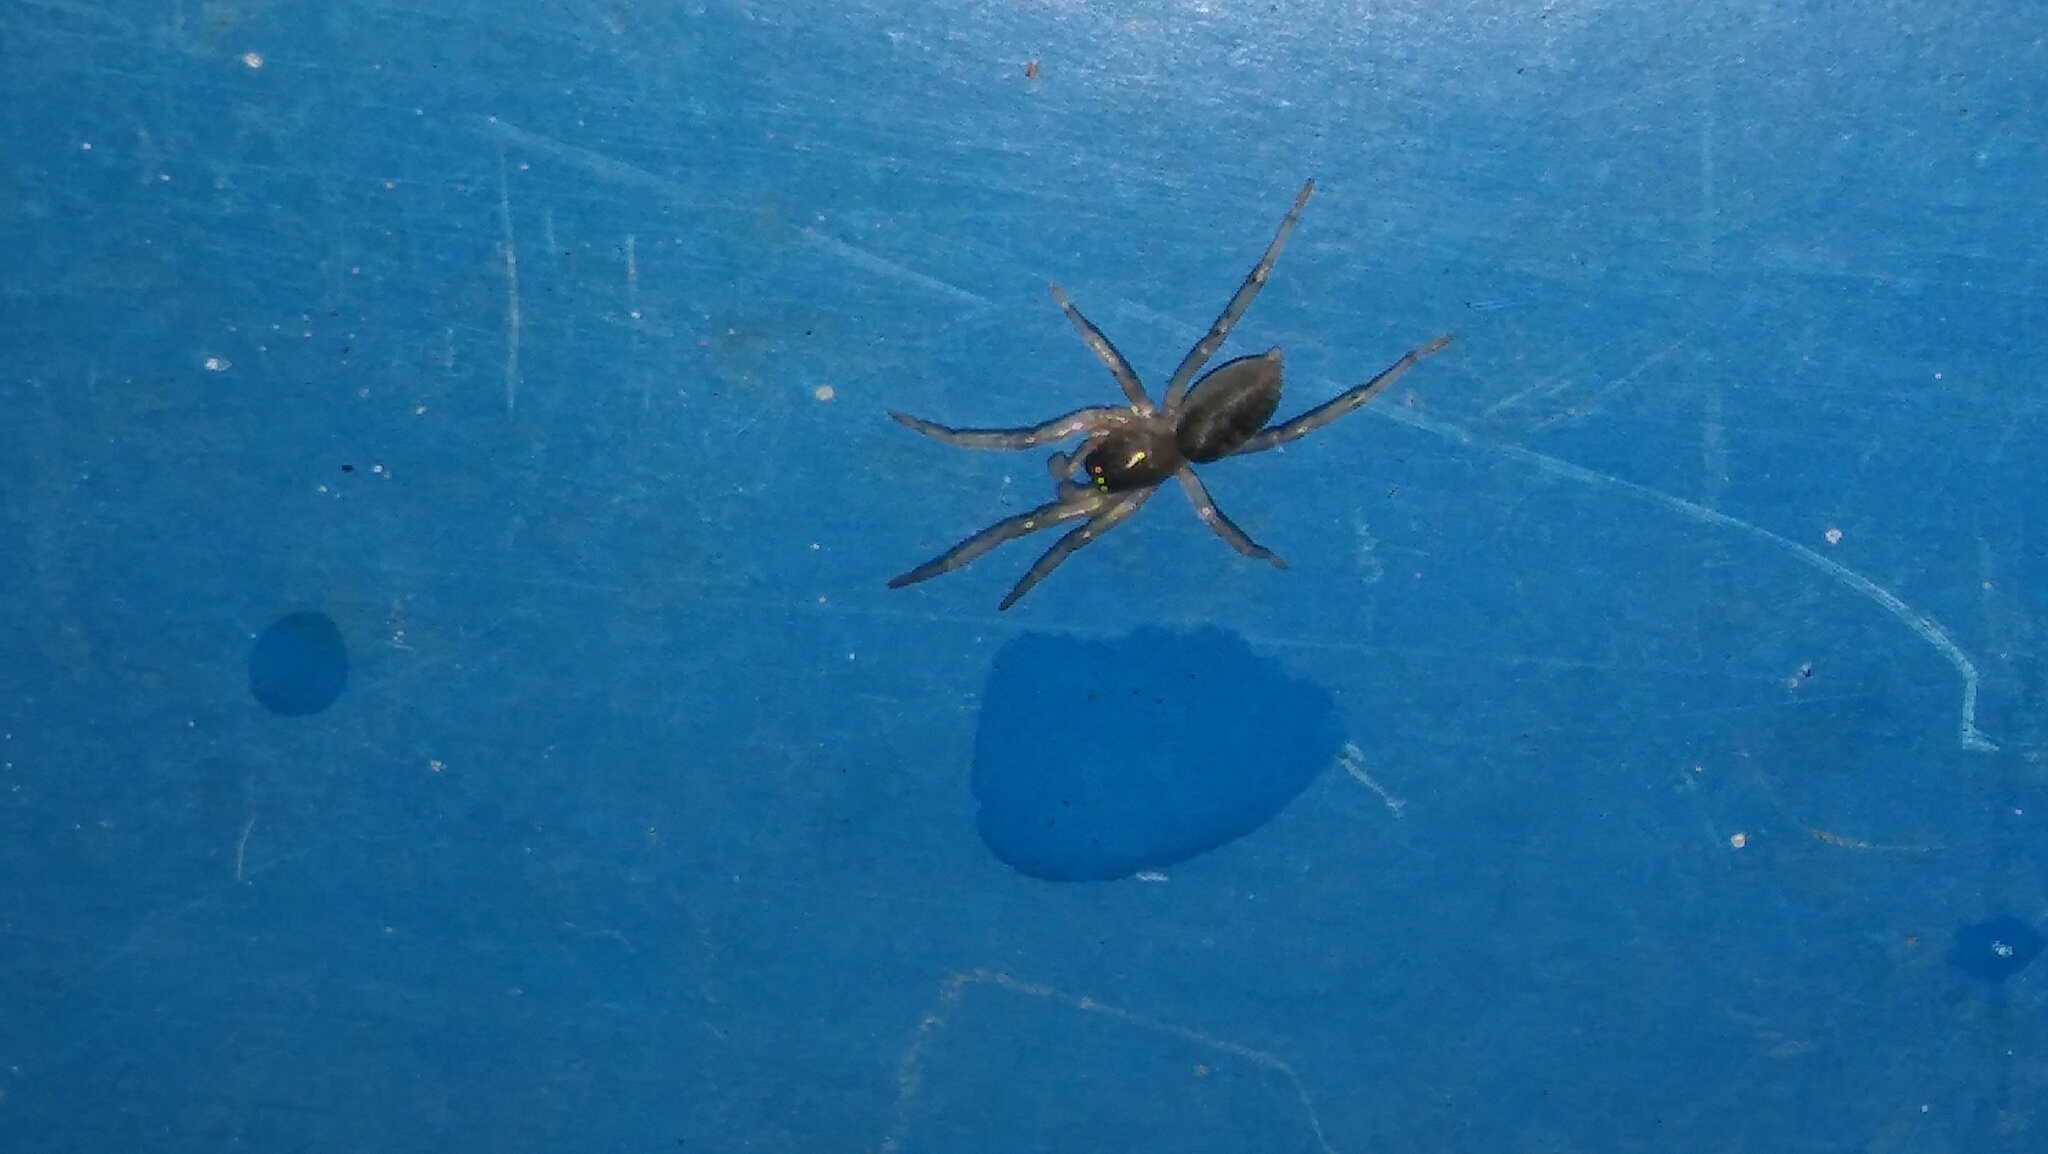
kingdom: Animalia
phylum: Arthropoda
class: Arachnida
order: Araneae
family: Trachelidae
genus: Meriola
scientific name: Meriola
